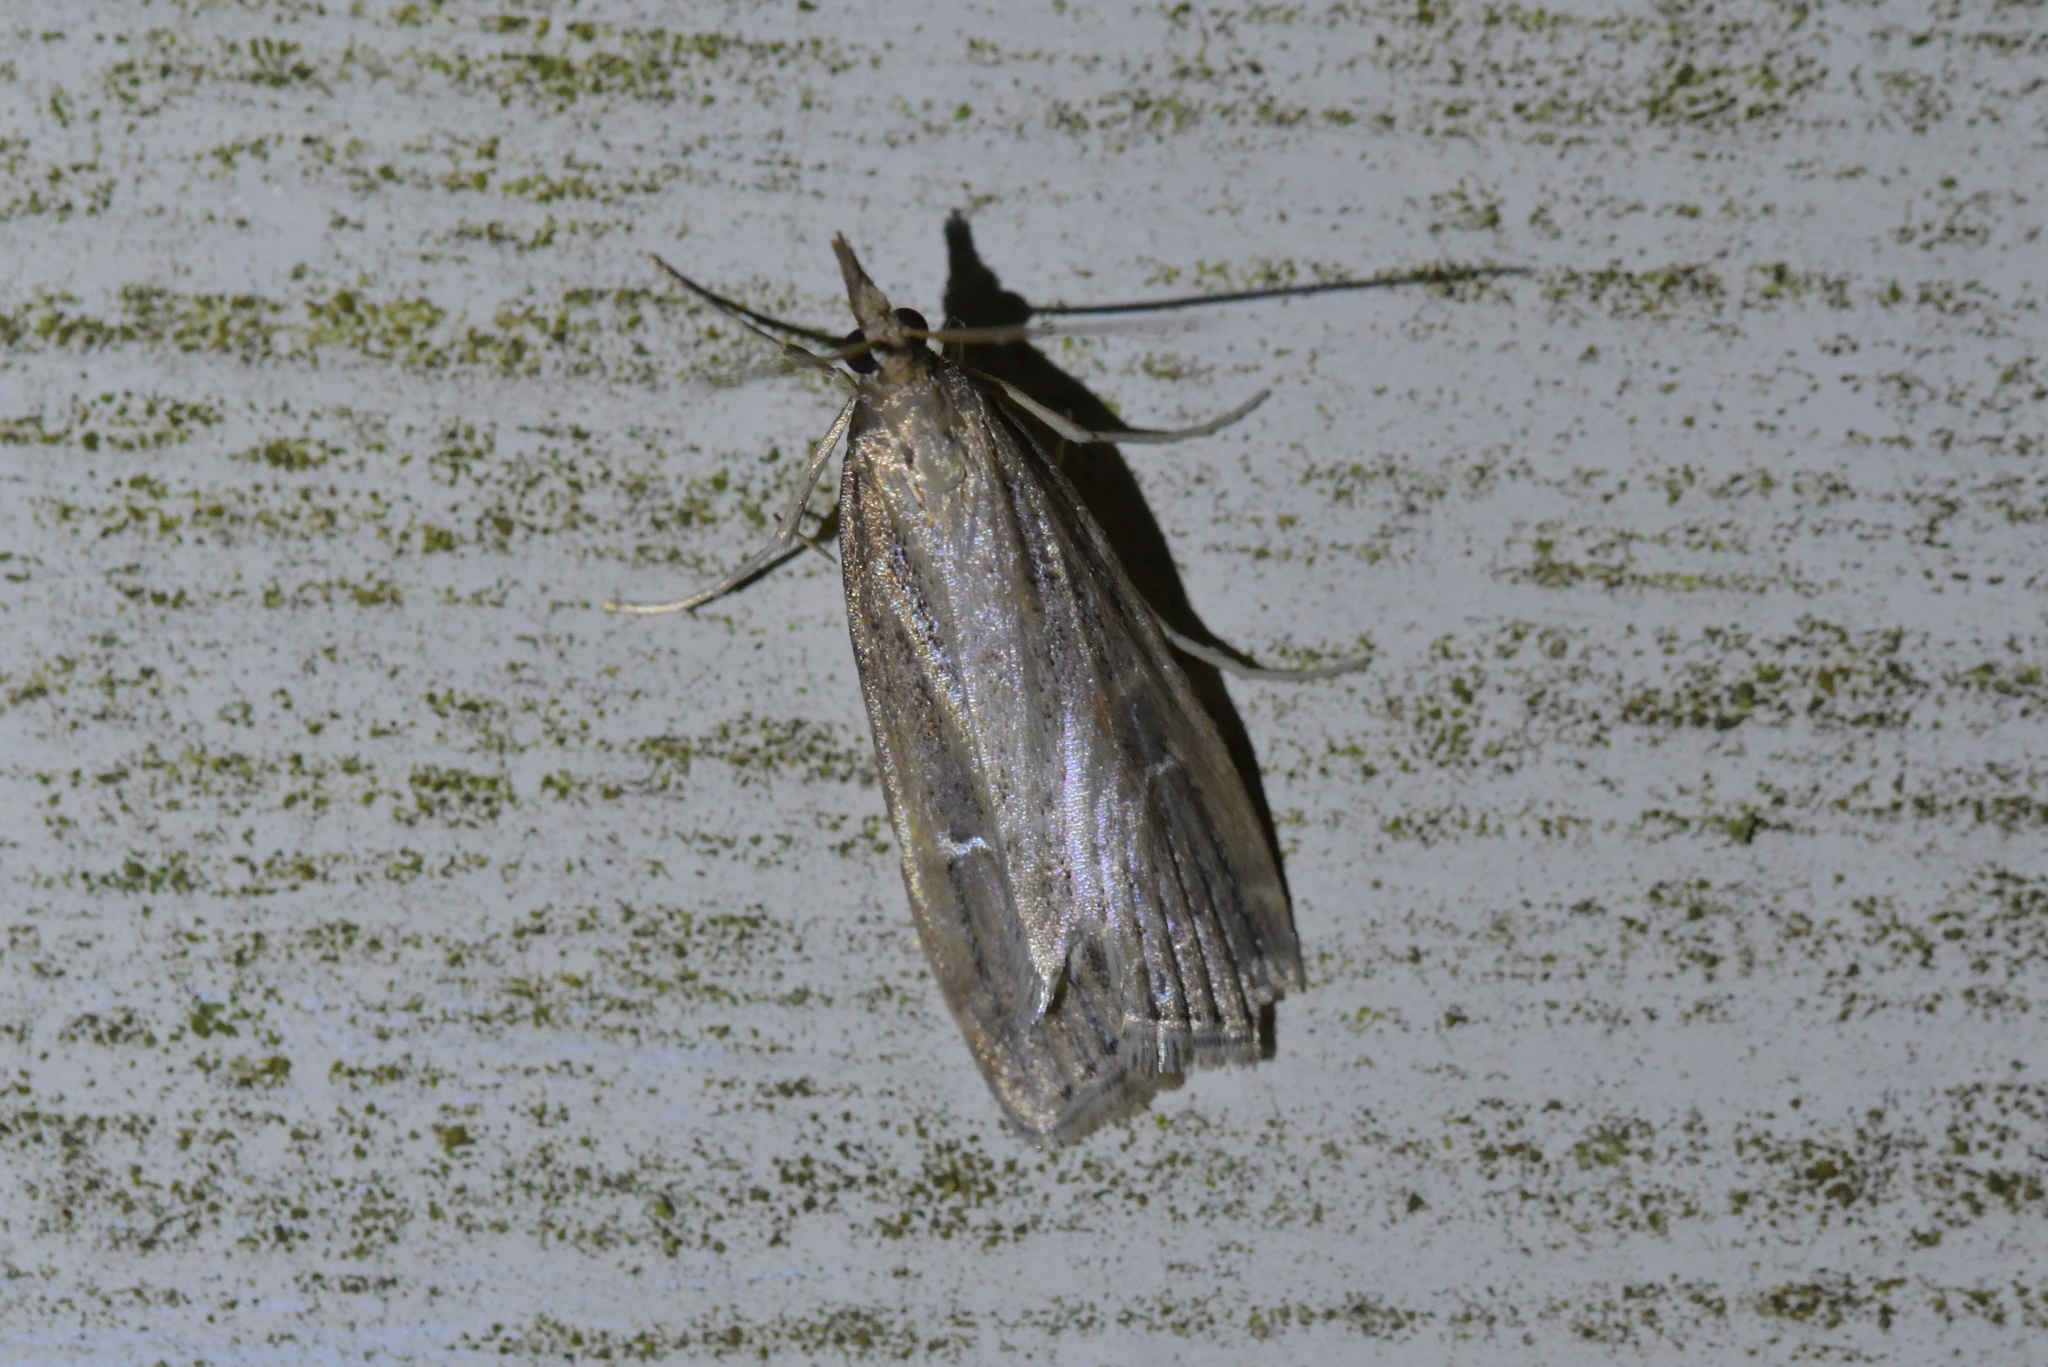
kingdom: Animalia
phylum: Arthropoda
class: Insecta
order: Lepidoptera
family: Crambidae
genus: Eudonia
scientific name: Eudonia octophora
